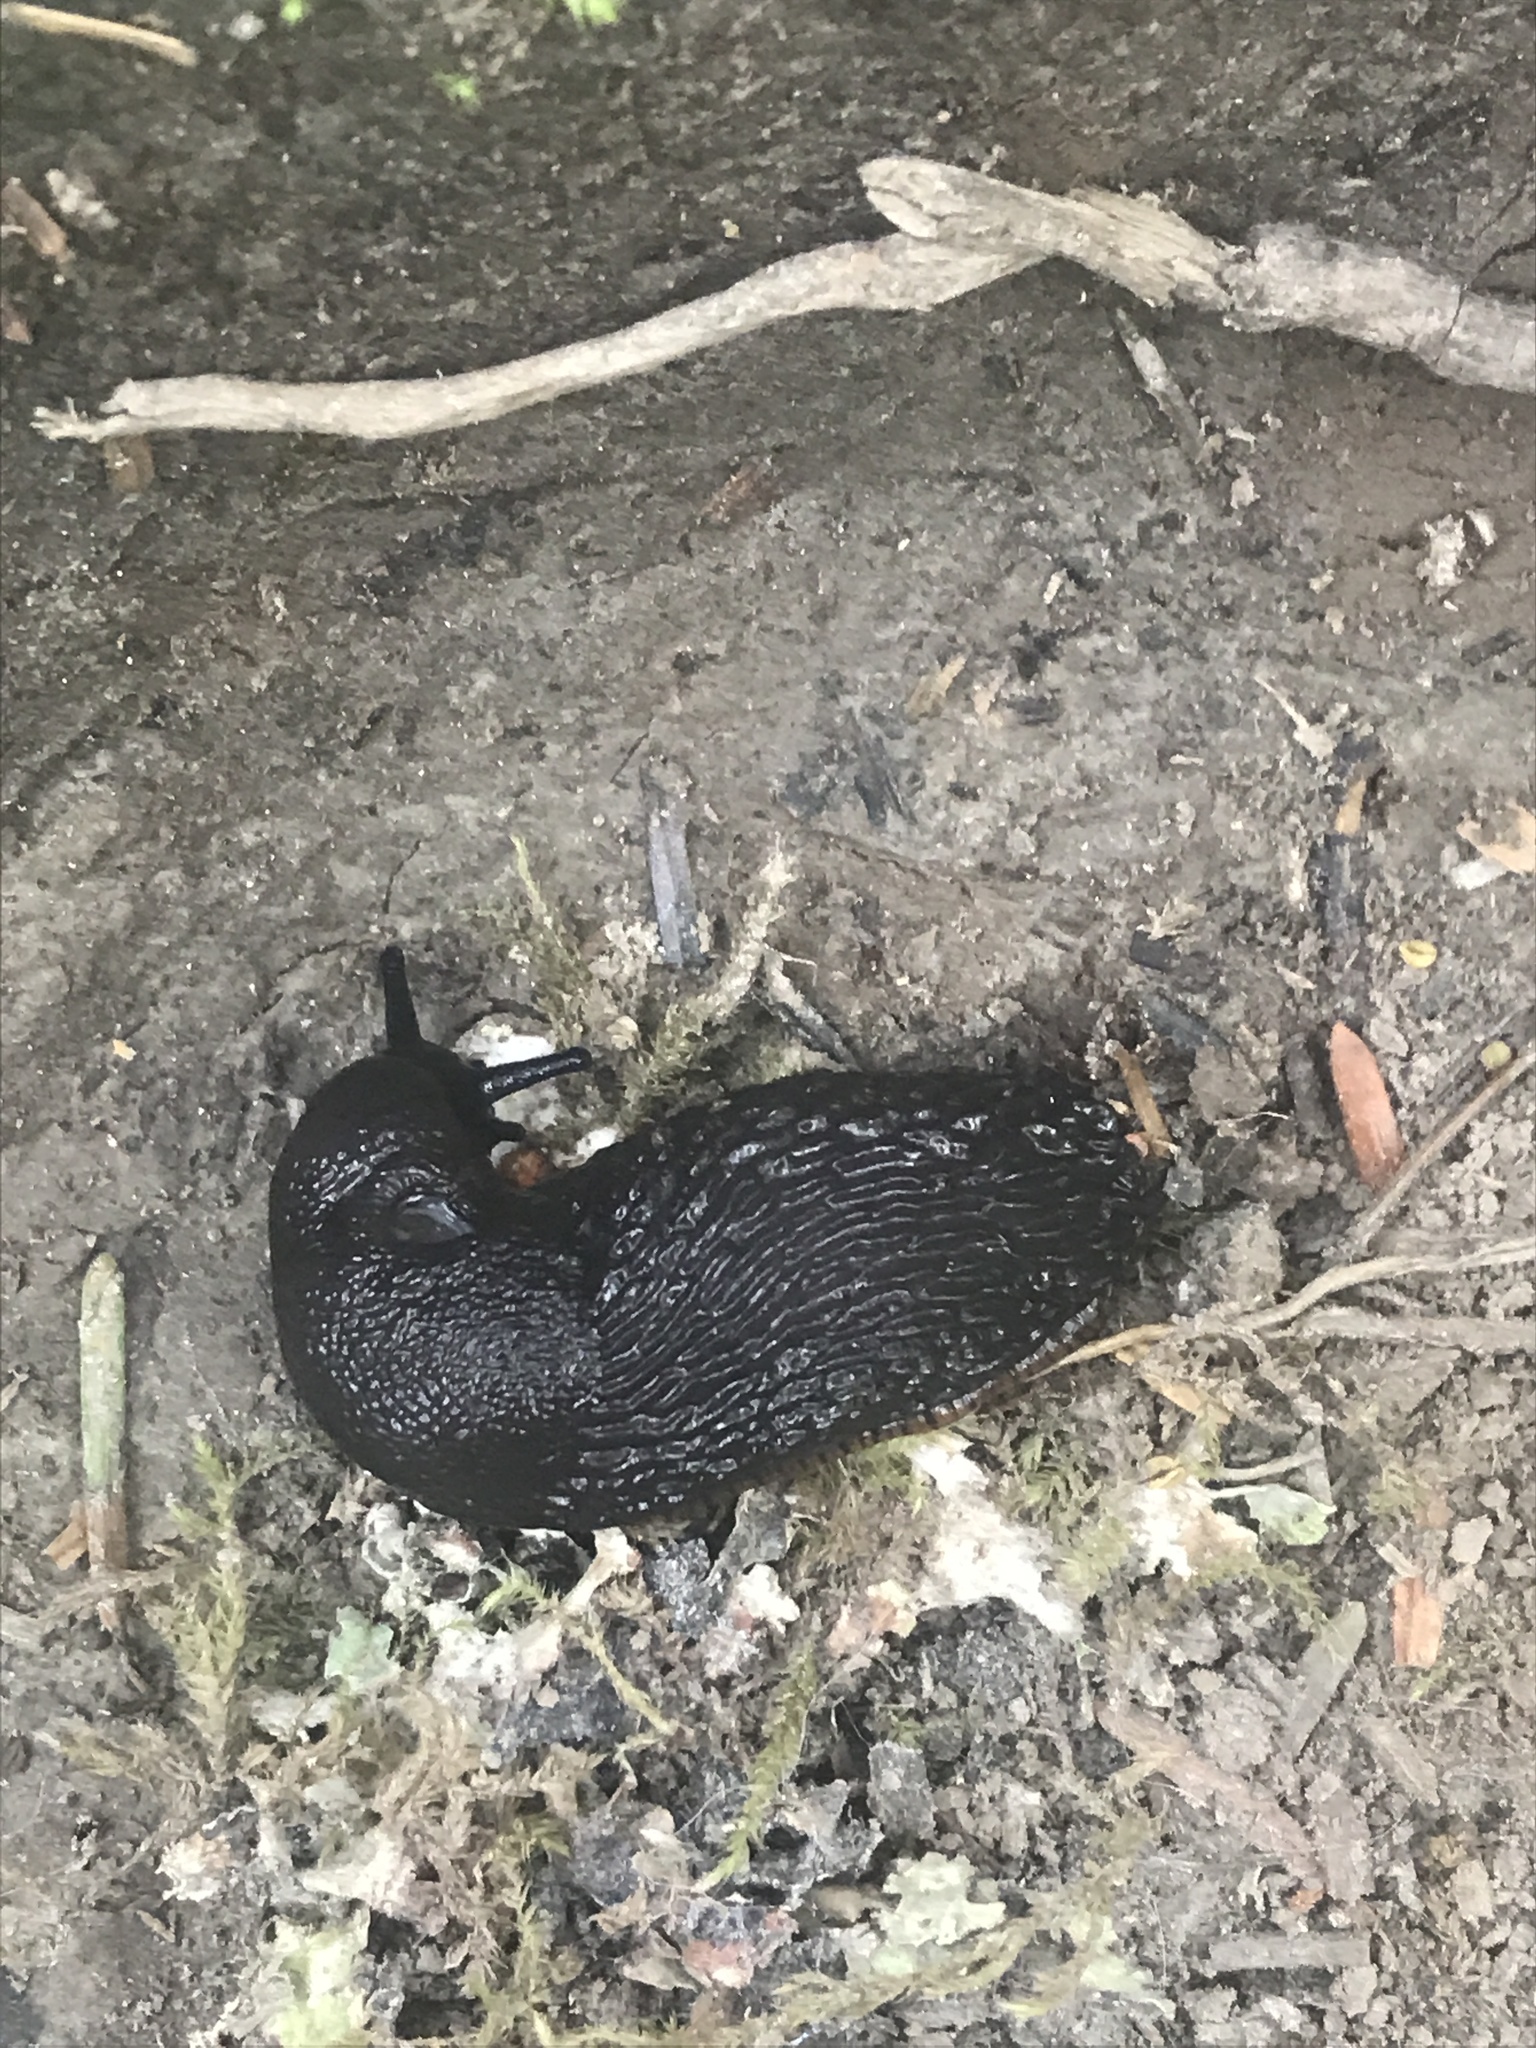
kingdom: Animalia
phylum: Mollusca
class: Gastropoda
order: Stylommatophora
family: Arionidae
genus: Arion
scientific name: Arion
